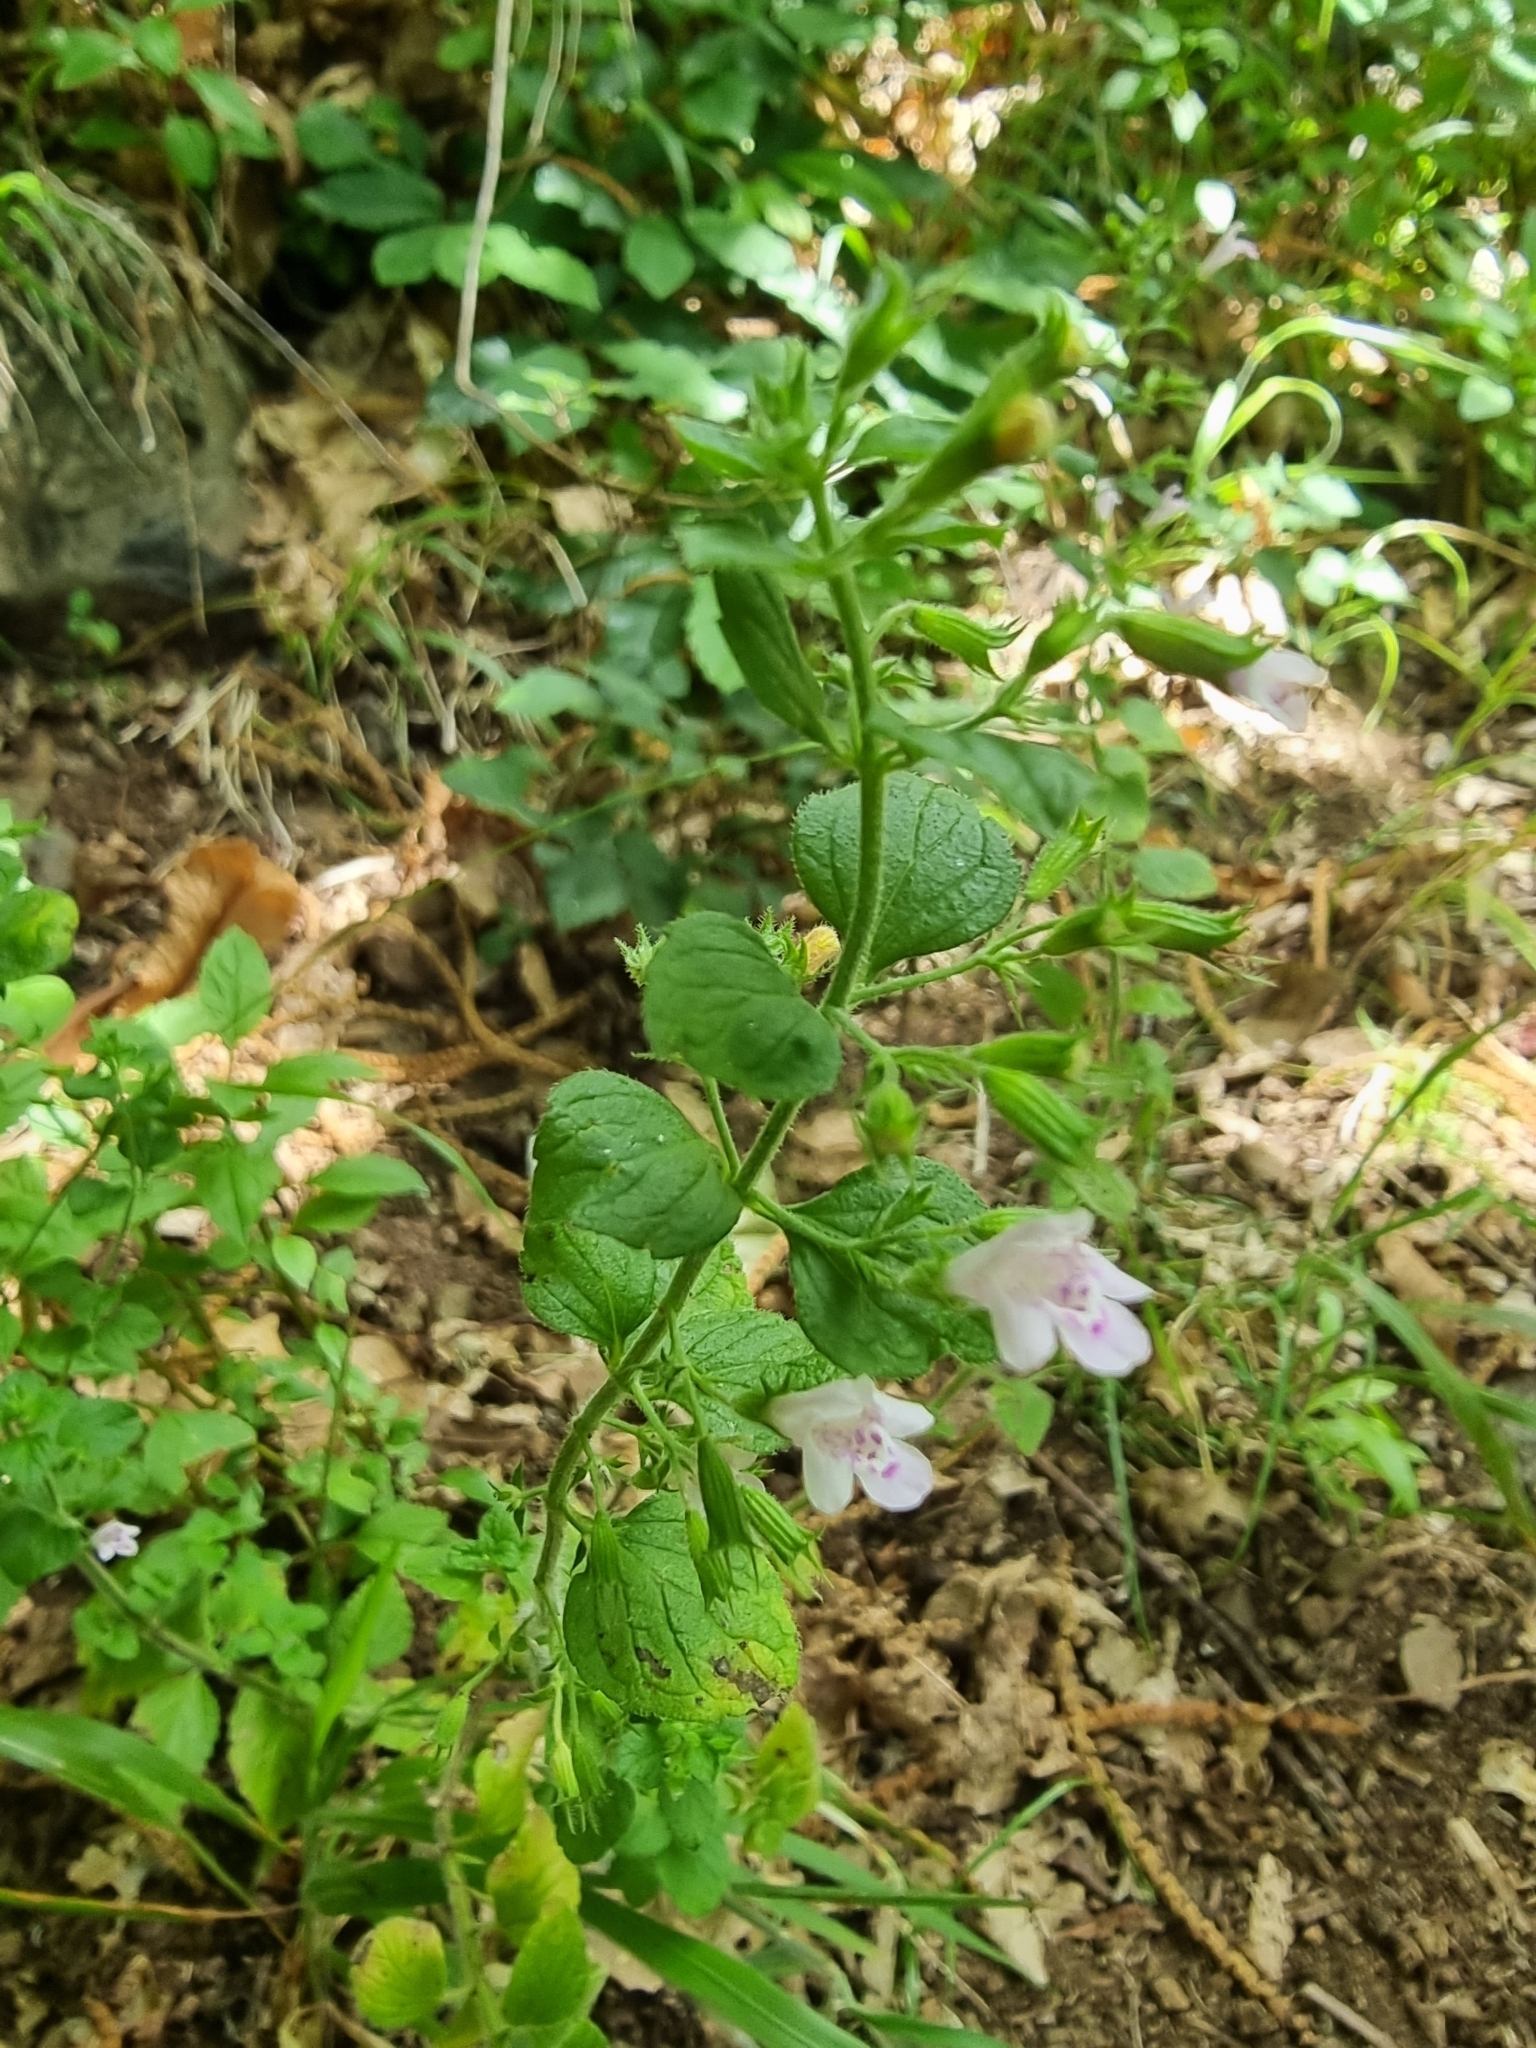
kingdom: Plantae
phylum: Tracheophyta
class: Magnoliopsida
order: Lamiales
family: Lamiaceae
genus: Clinopodium
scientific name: Clinopodium menthifolium
